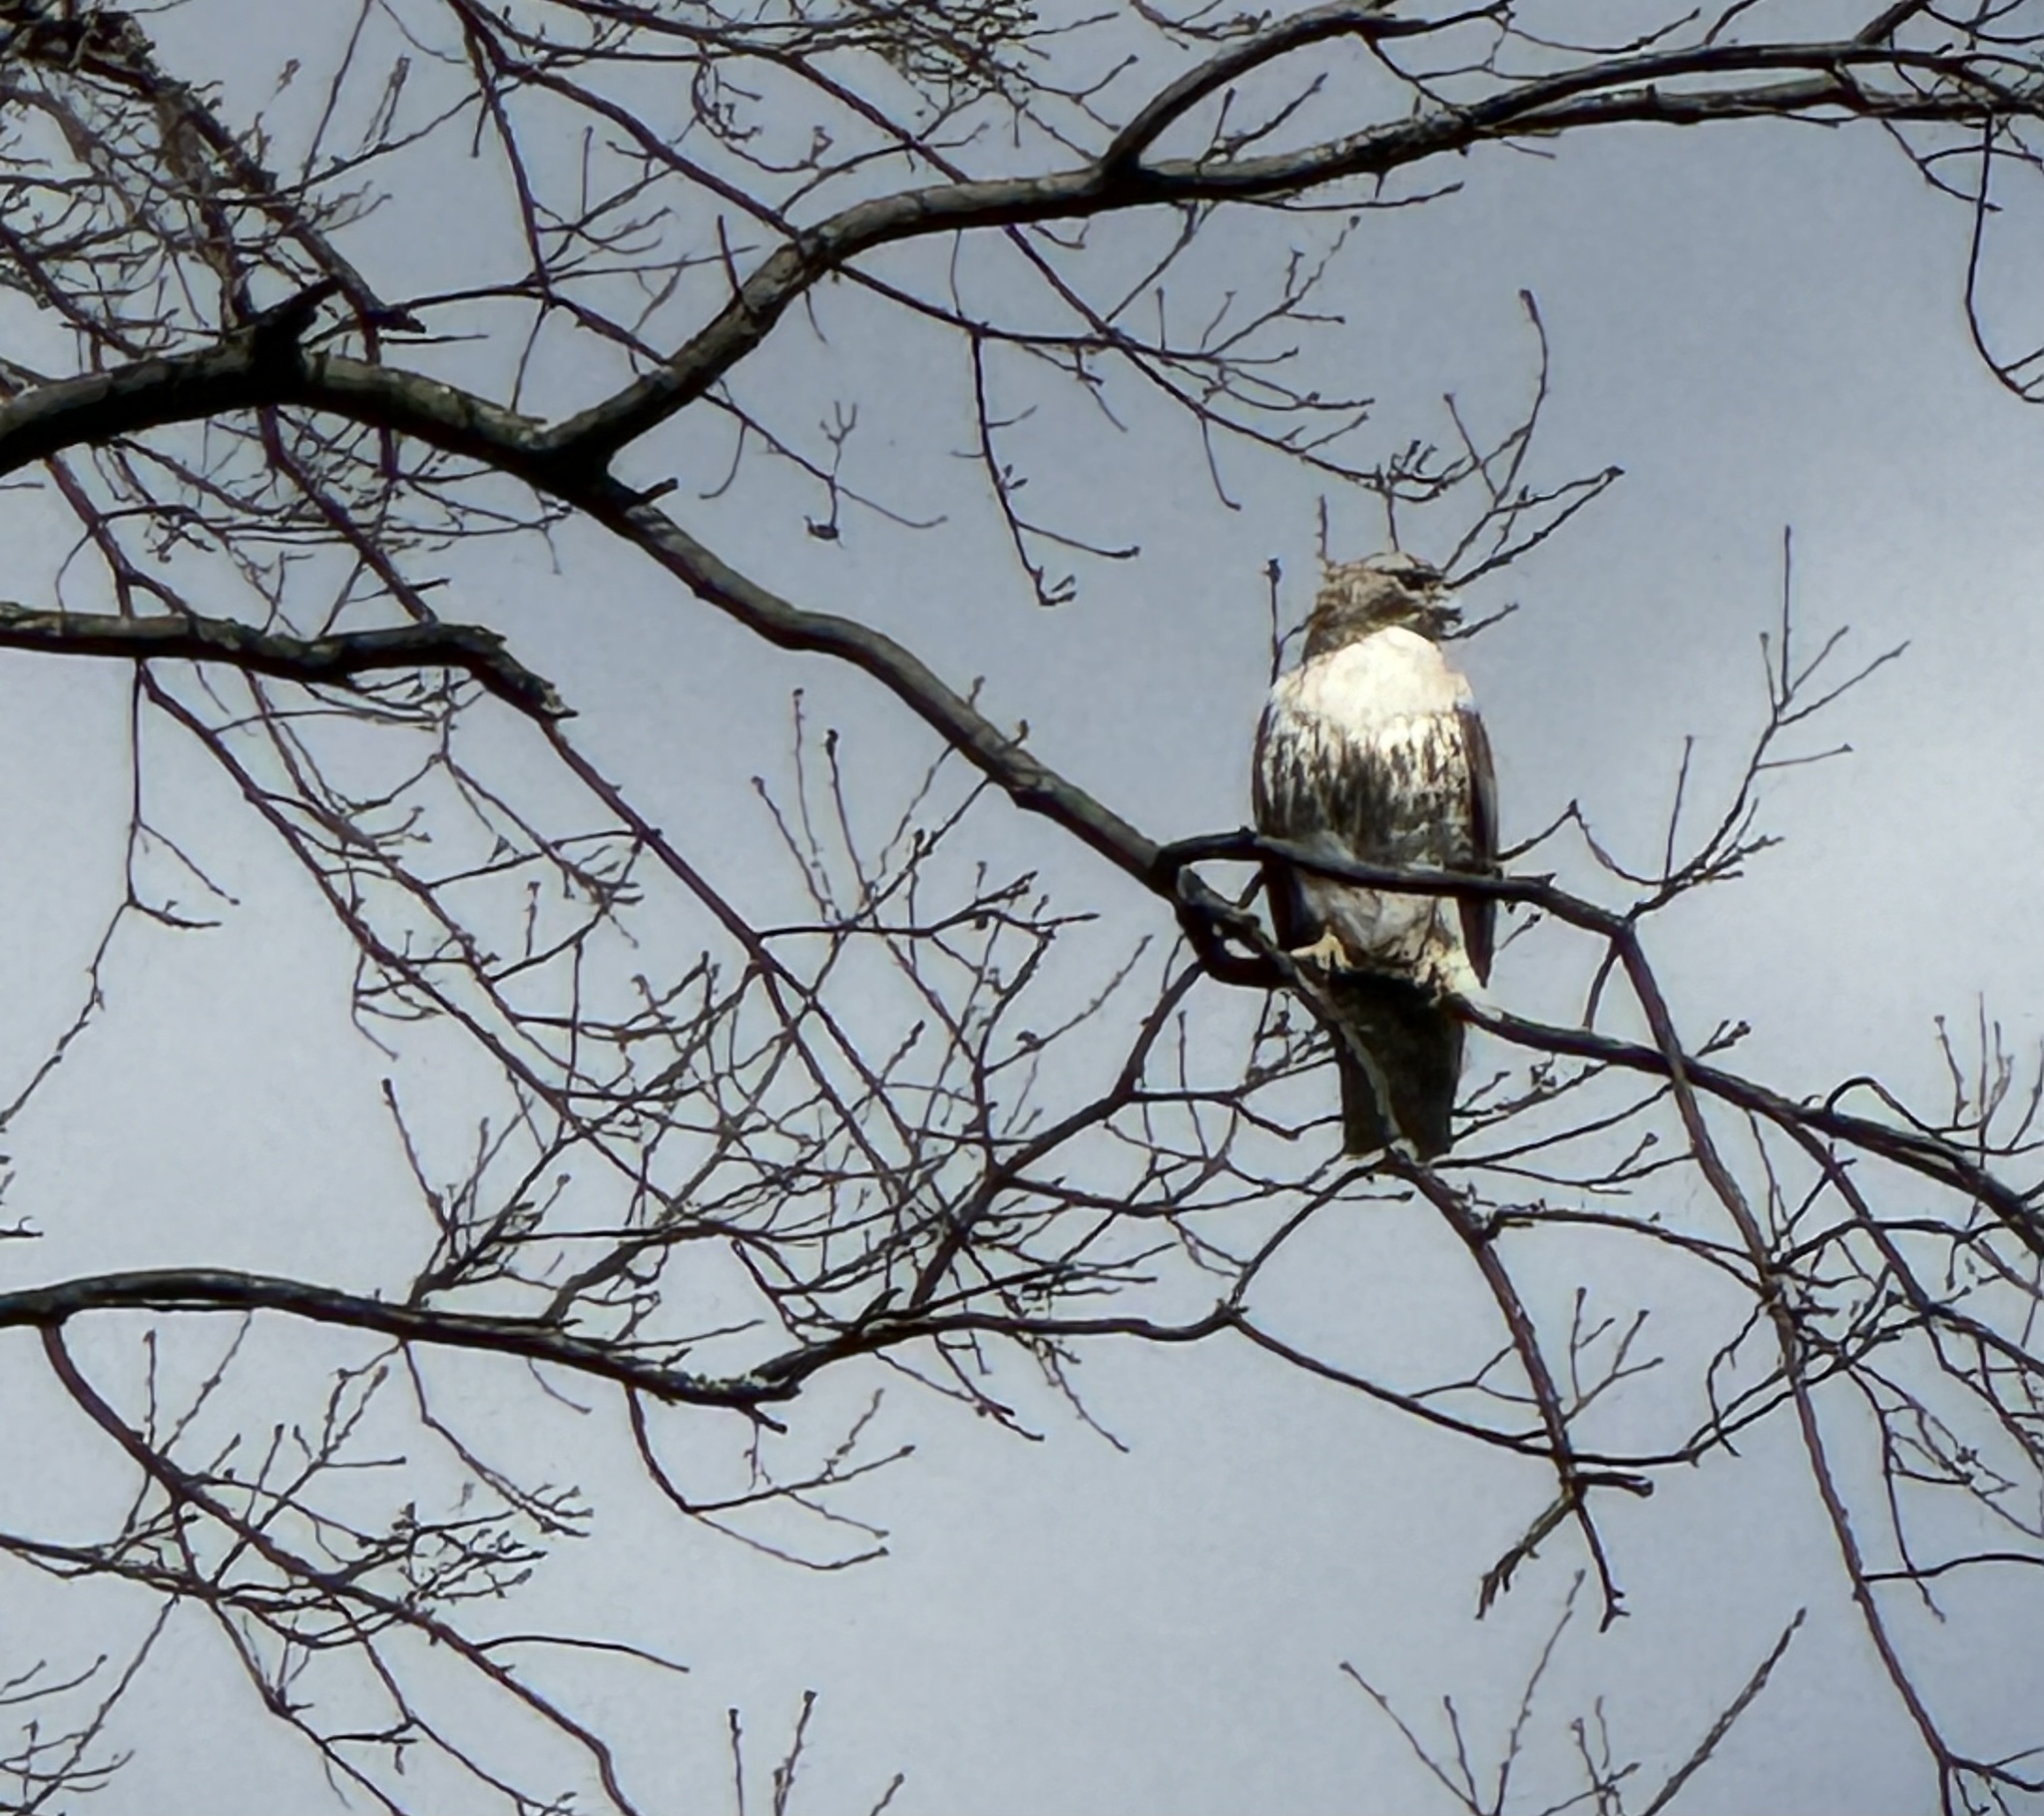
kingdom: Animalia
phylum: Chordata
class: Aves
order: Accipitriformes
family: Accipitridae
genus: Buteo
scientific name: Buteo jamaicensis
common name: Red-tailed hawk
